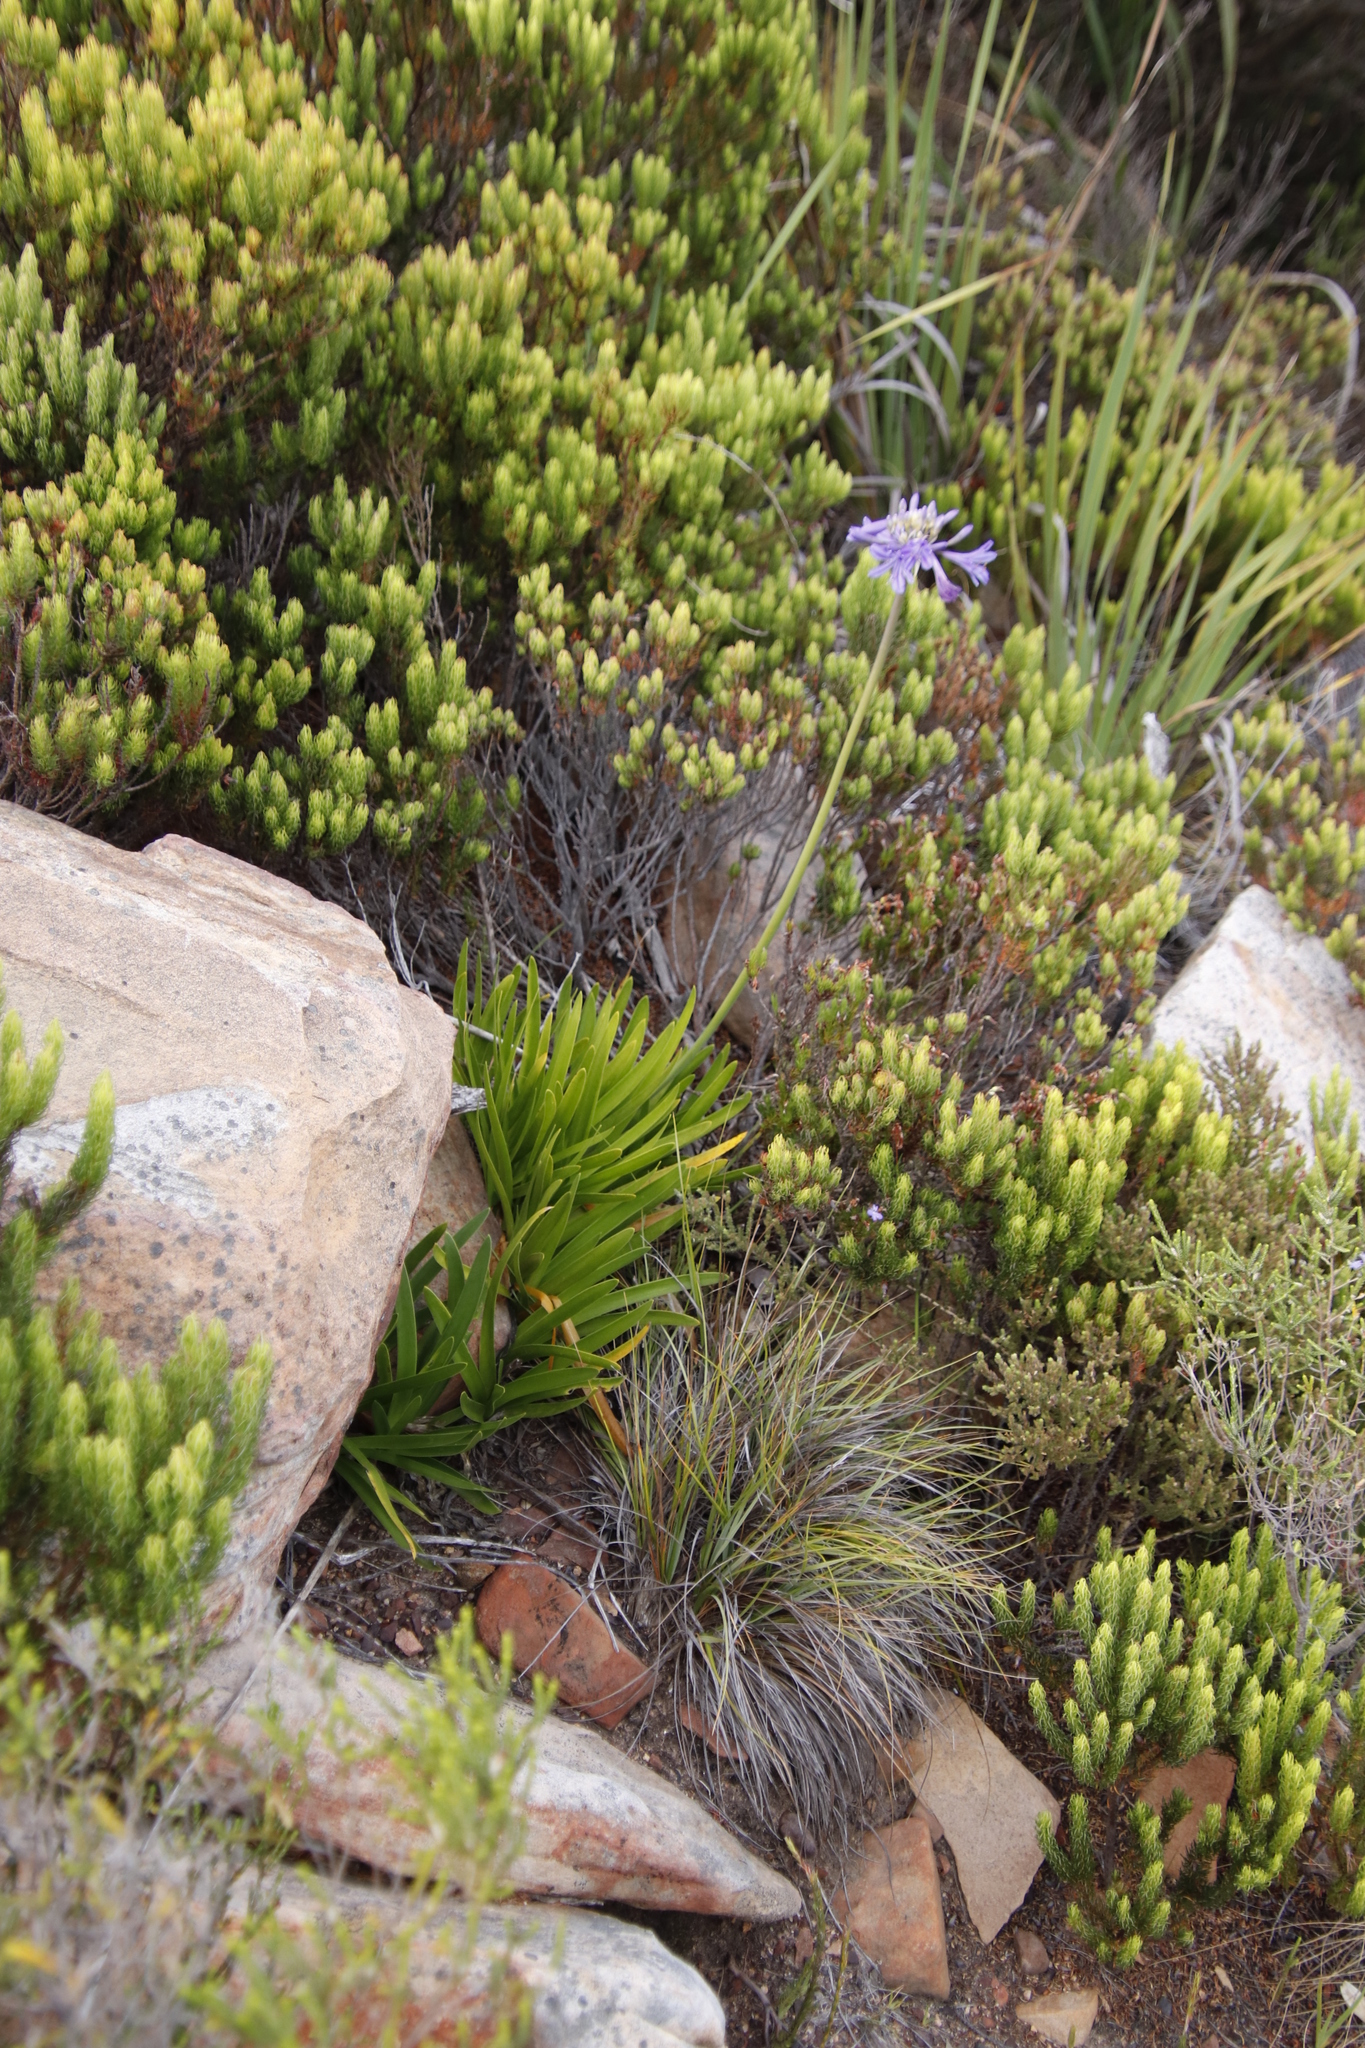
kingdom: Plantae
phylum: Tracheophyta
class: Liliopsida
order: Asparagales
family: Amaryllidaceae
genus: Agapanthus
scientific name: Agapanthus africanus
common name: Lily-of-the-nile
